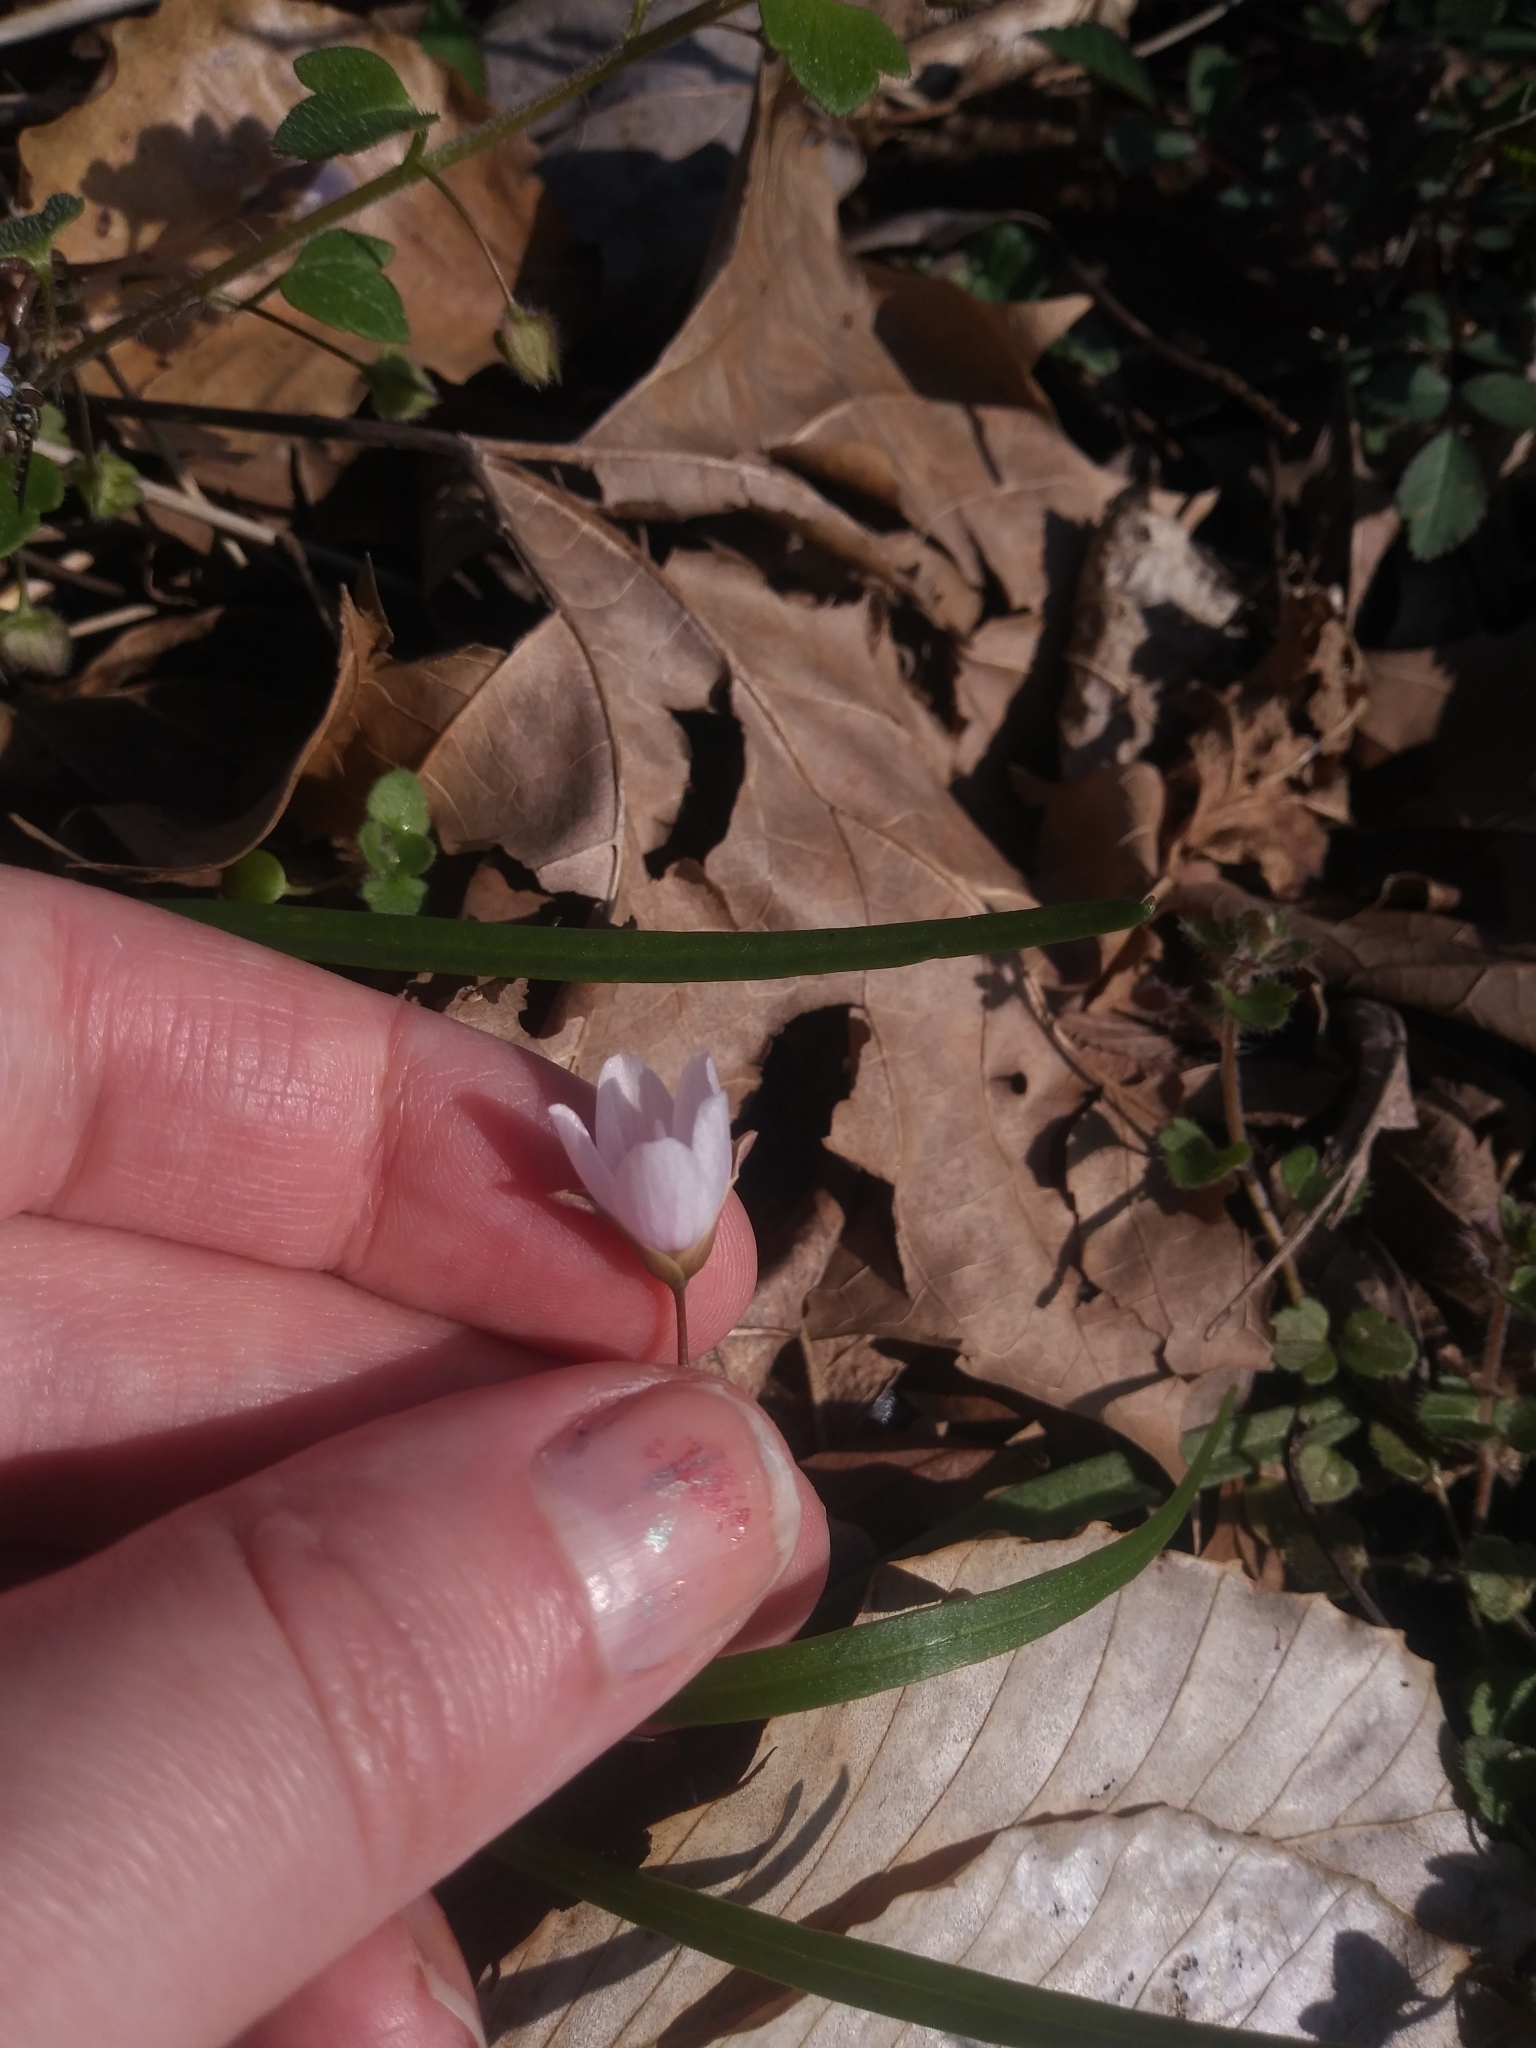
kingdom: Plantae
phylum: Tracheophyta
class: Magnoliopsida
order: Caryophyllales
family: Montiaceae
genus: Claytonia
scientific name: Claytonia virginica
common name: Virginia springbeauty
